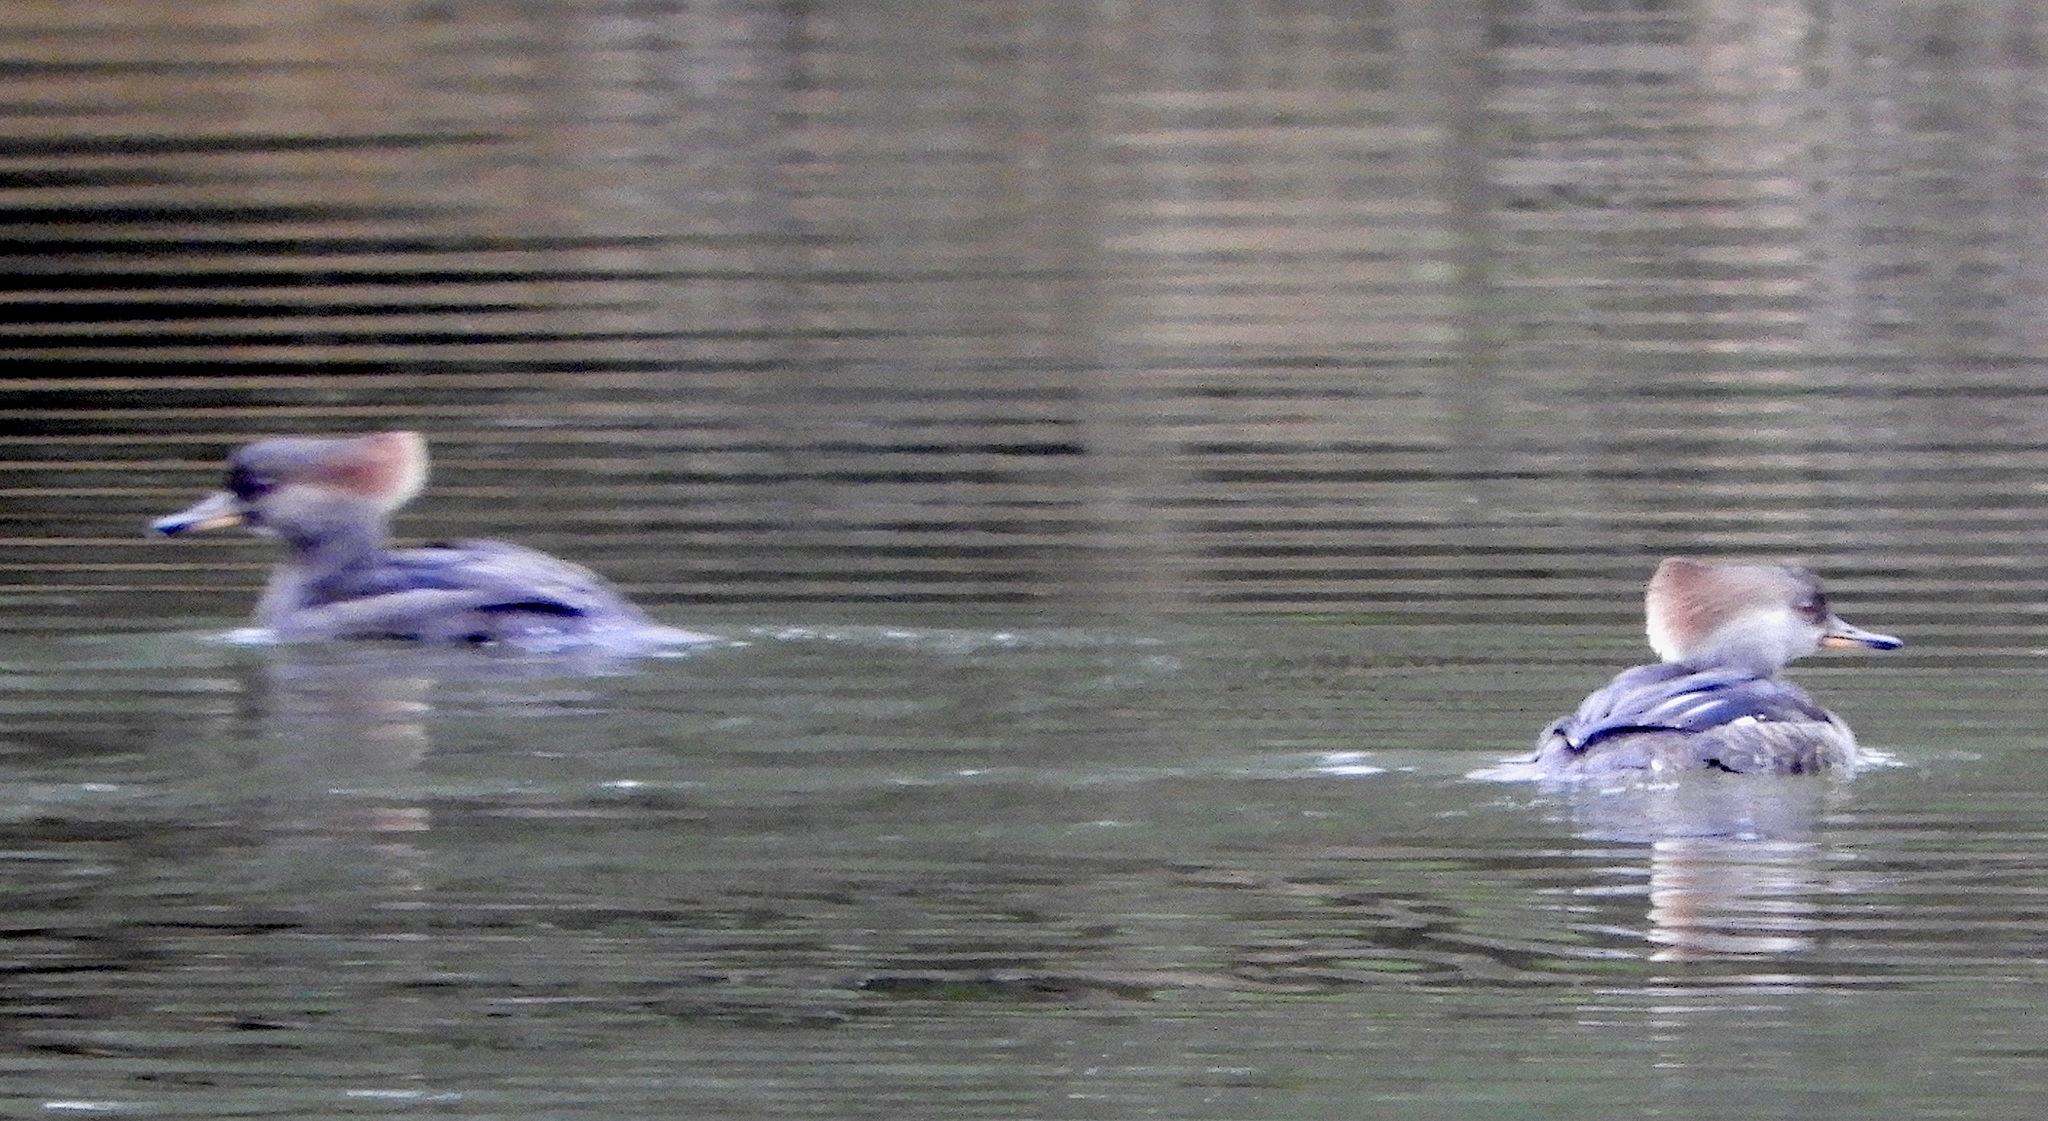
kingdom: Animalia
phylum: Chordata
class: Aves
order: Anseriformes
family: Anatidae
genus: Lophodytes
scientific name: Lophodytes cucullatus
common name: Hooded merganser
